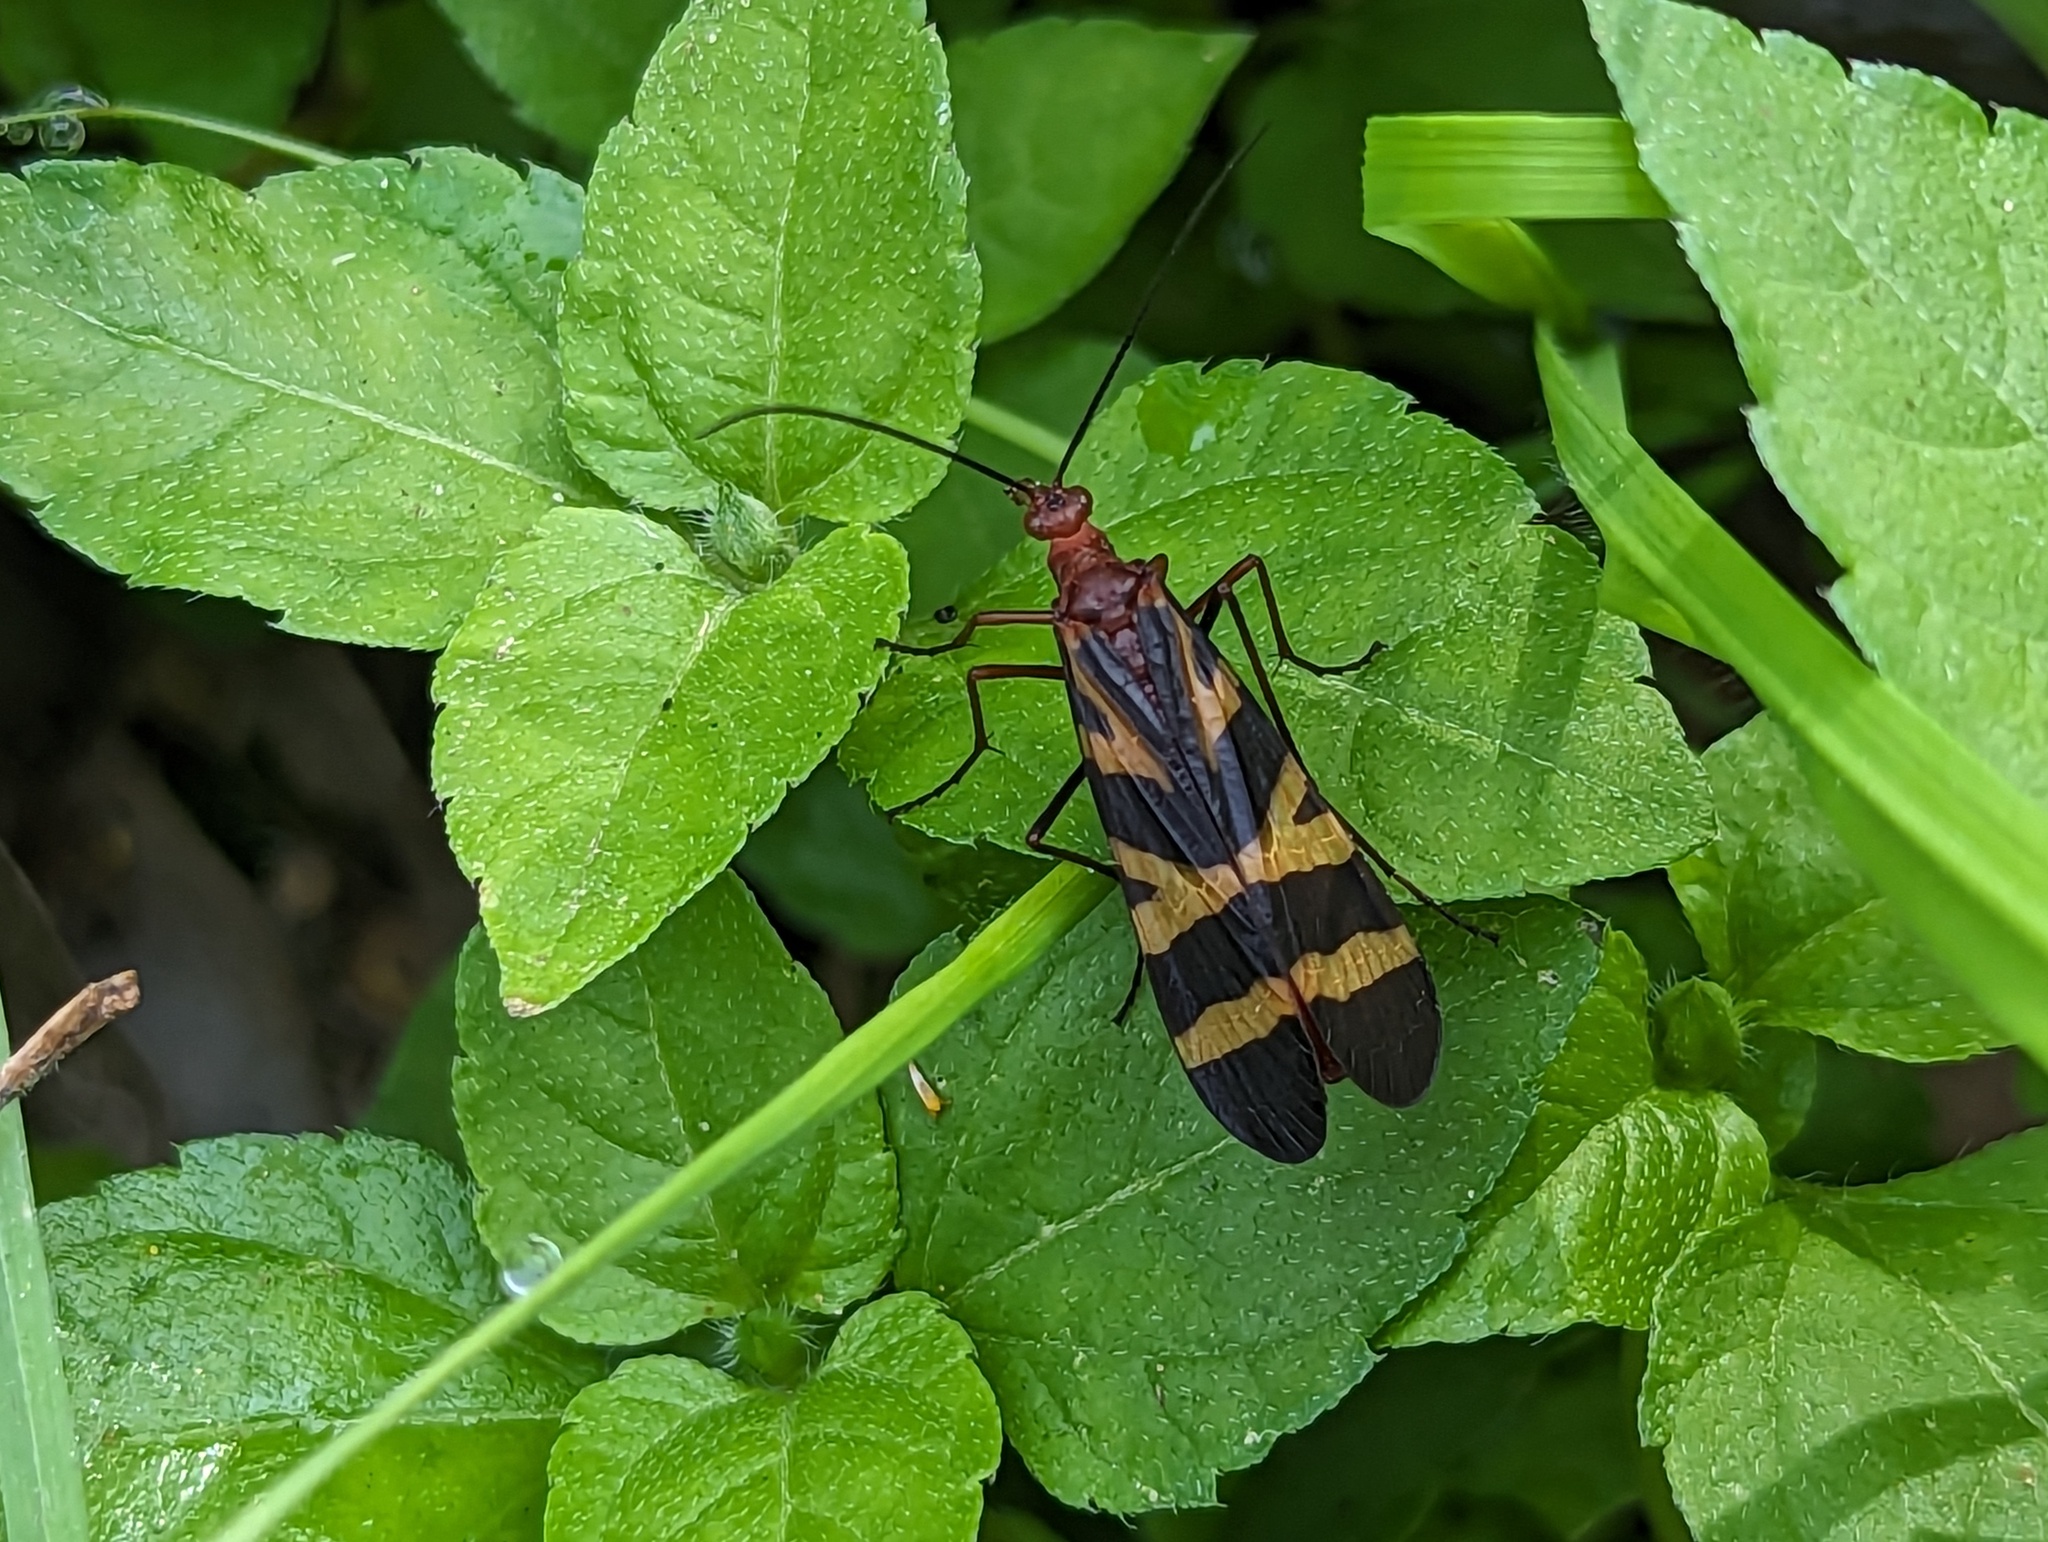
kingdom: Animalia
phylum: Arthropoda
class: Insecta
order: Mecoptera
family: Panorpidae
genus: Panorpa
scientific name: Panorpa nuptialis
